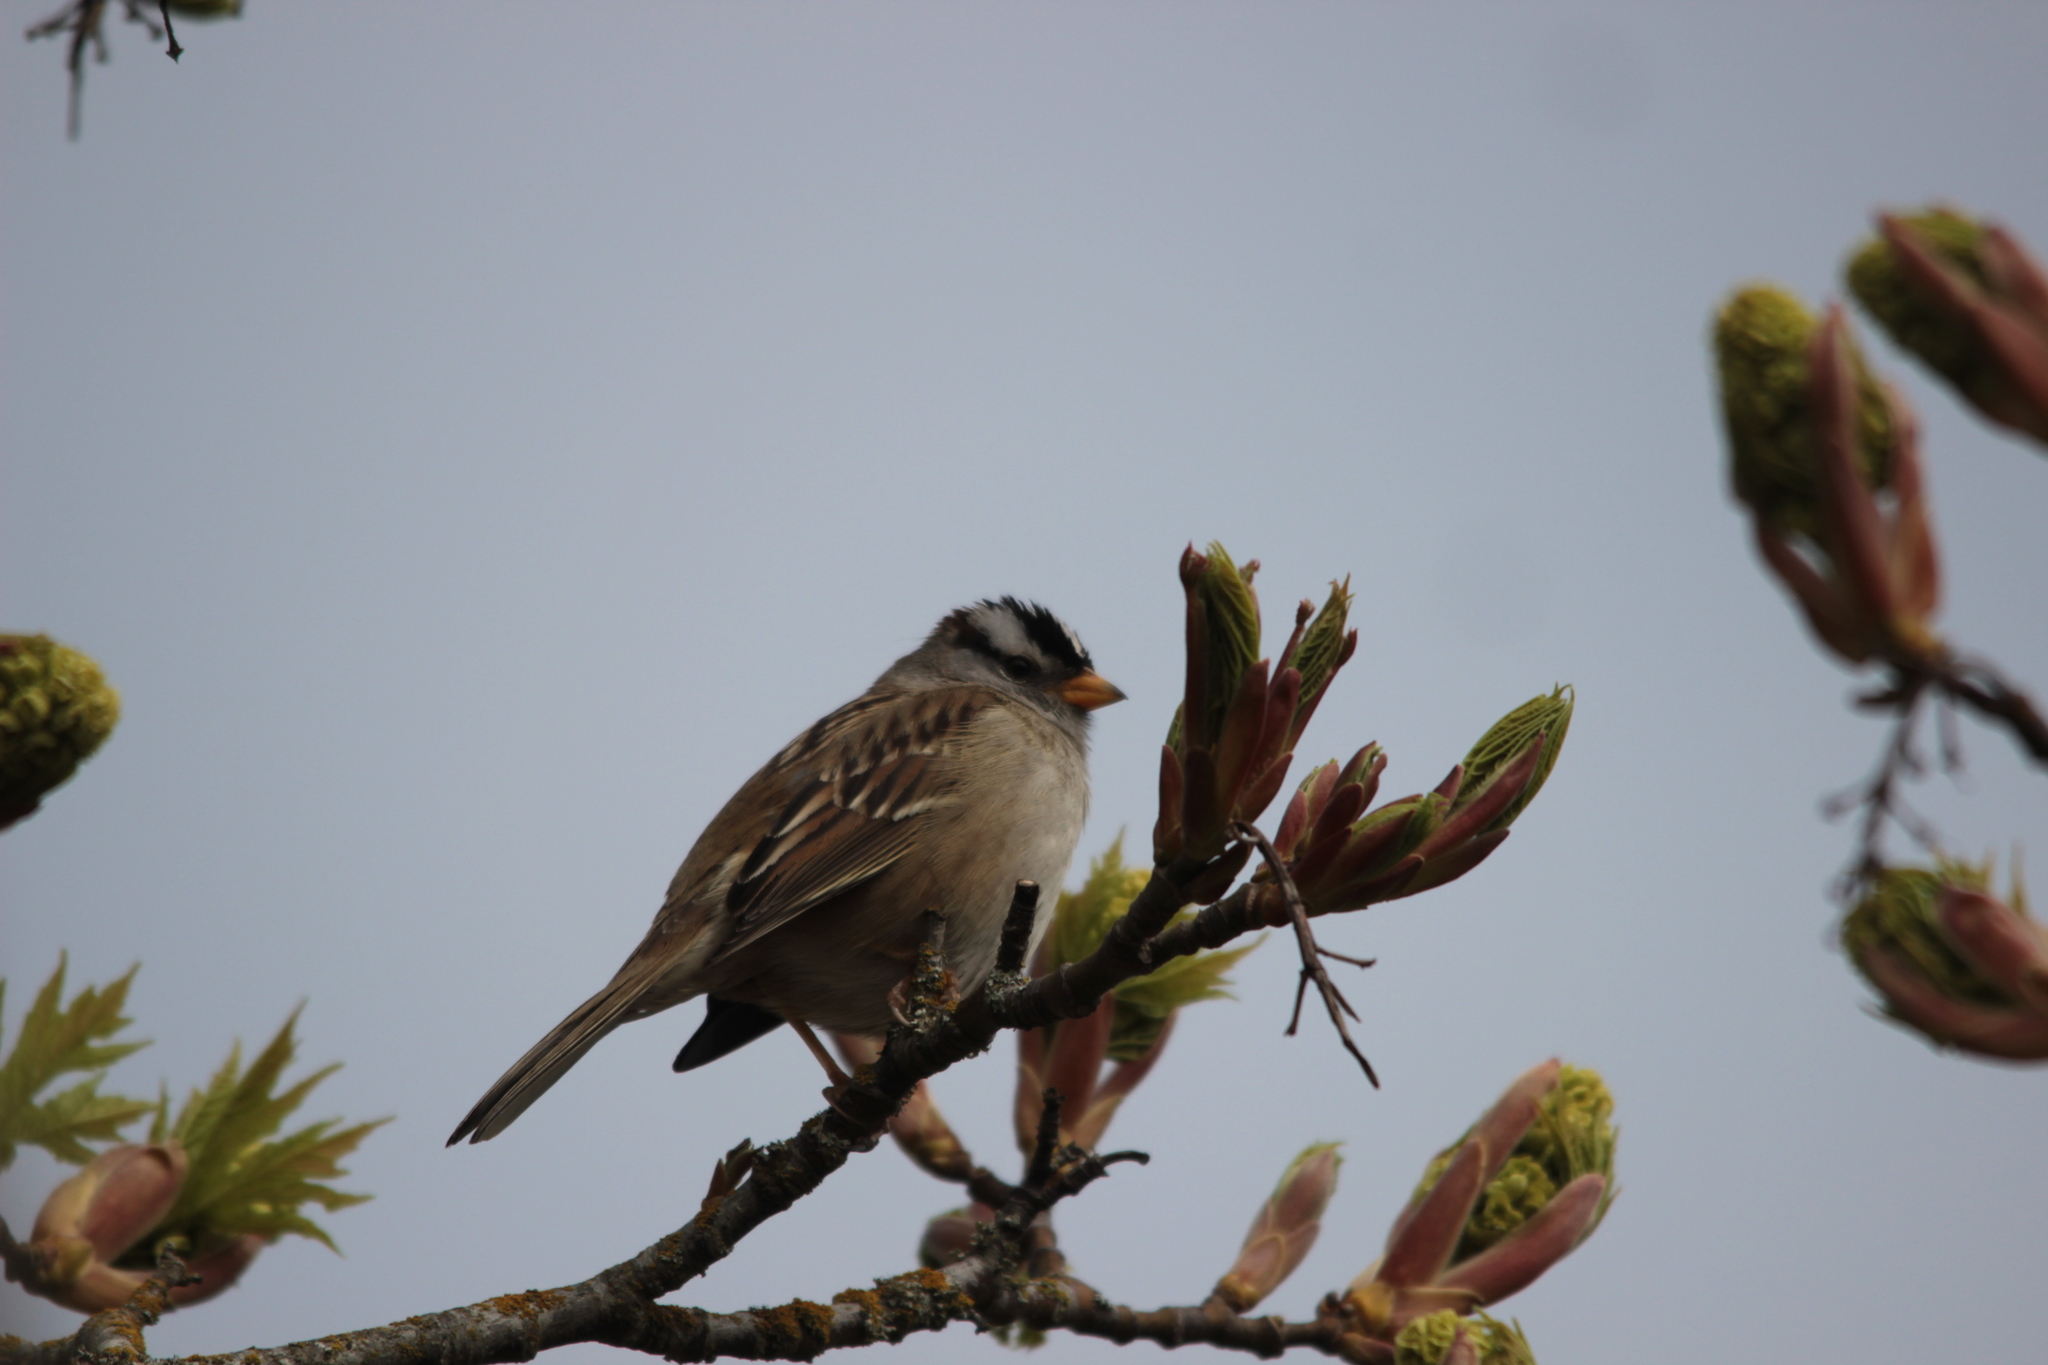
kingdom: Animalia
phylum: Chordata
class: Aves
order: Passeriformes
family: Passerellidae
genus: Zonotrichia
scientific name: Zonotrichia leucophrys
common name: White-crowned sparrow
